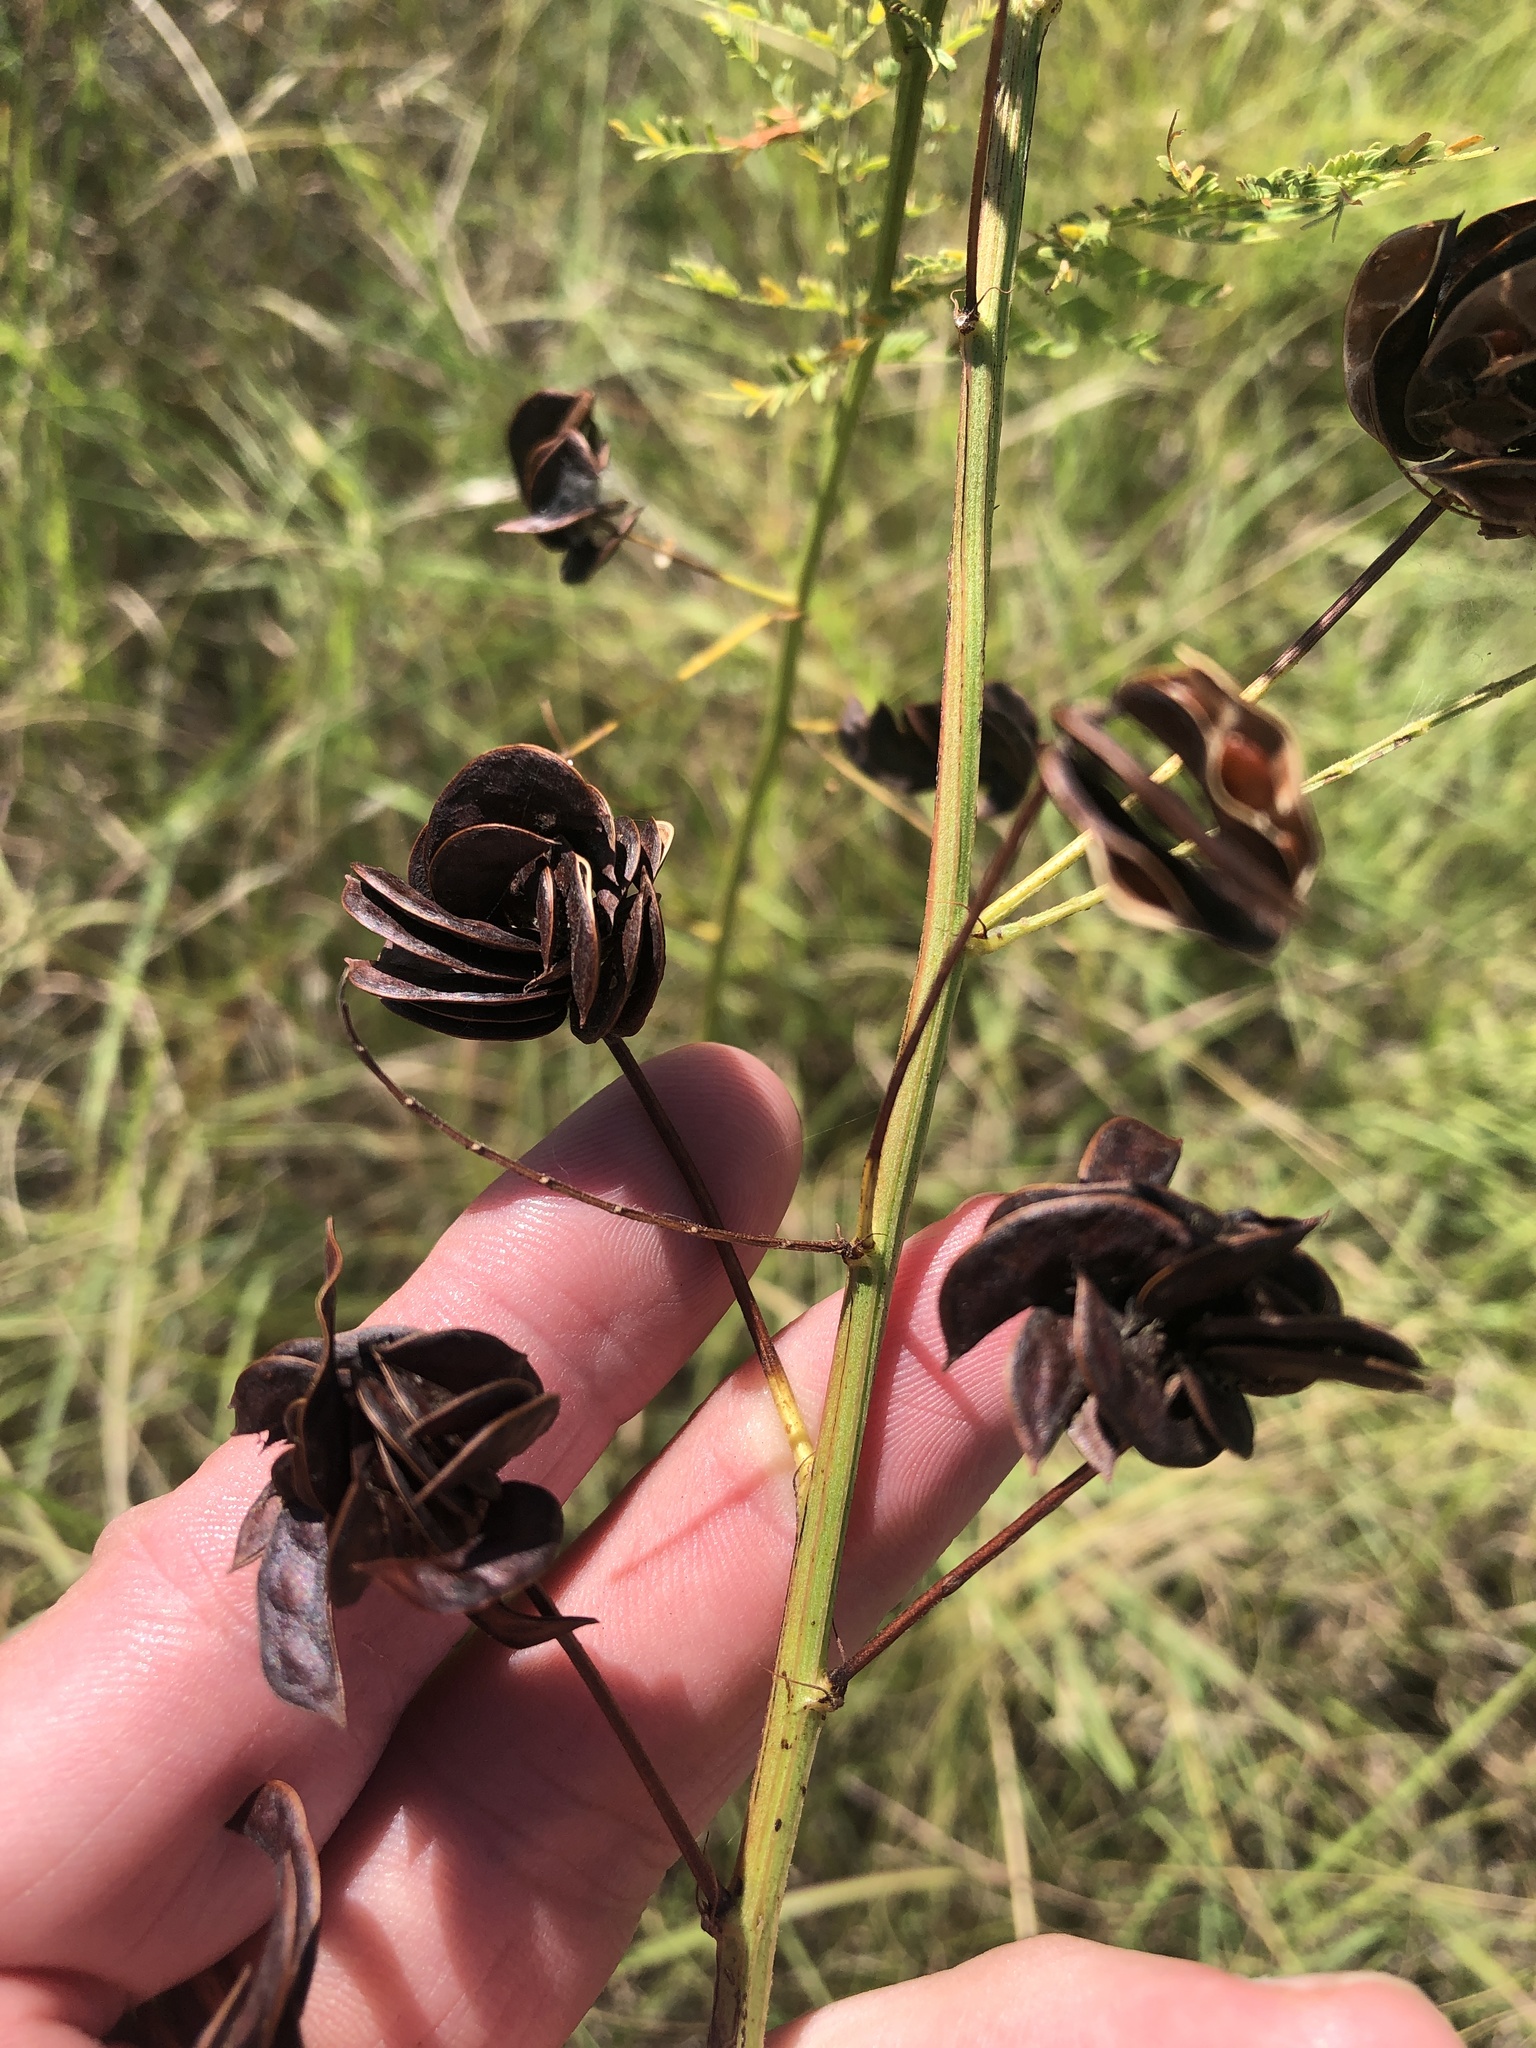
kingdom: Plantae
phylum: Tracheophyta
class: Magnoliopsida
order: Fabales
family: Fabaceae
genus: Desmanthus
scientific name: Desmanthus illinoensis
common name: Illinois bundle-flower
